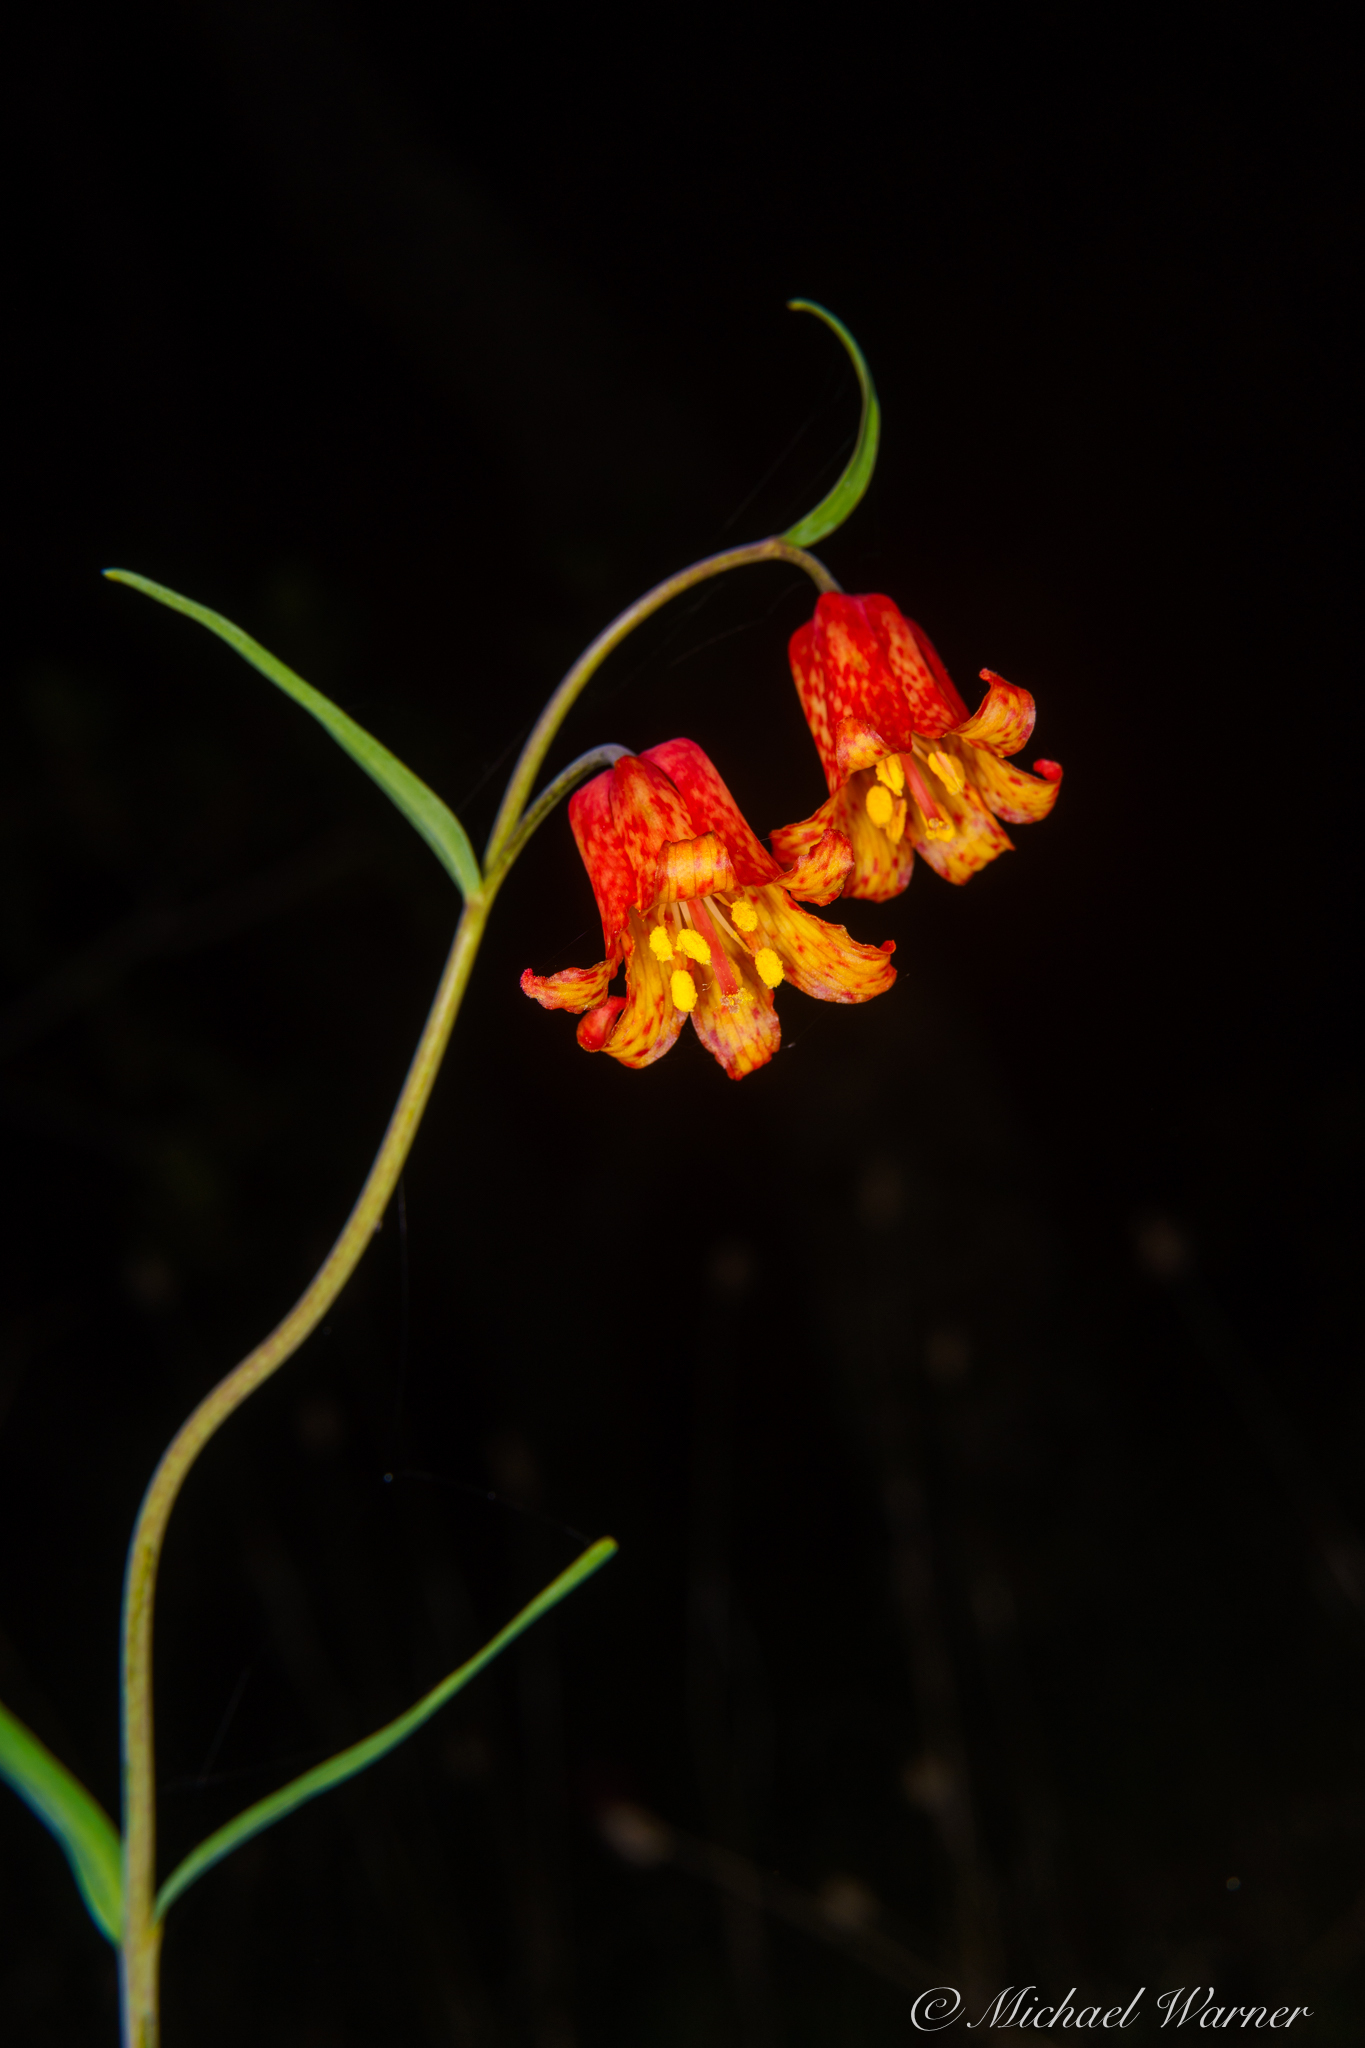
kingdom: Plantae
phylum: Tracheophyta
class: Liliopsida
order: Liliales
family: Liliaceae
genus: Fritillaria
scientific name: Fritillaria recurva
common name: Scarlet fritillary
